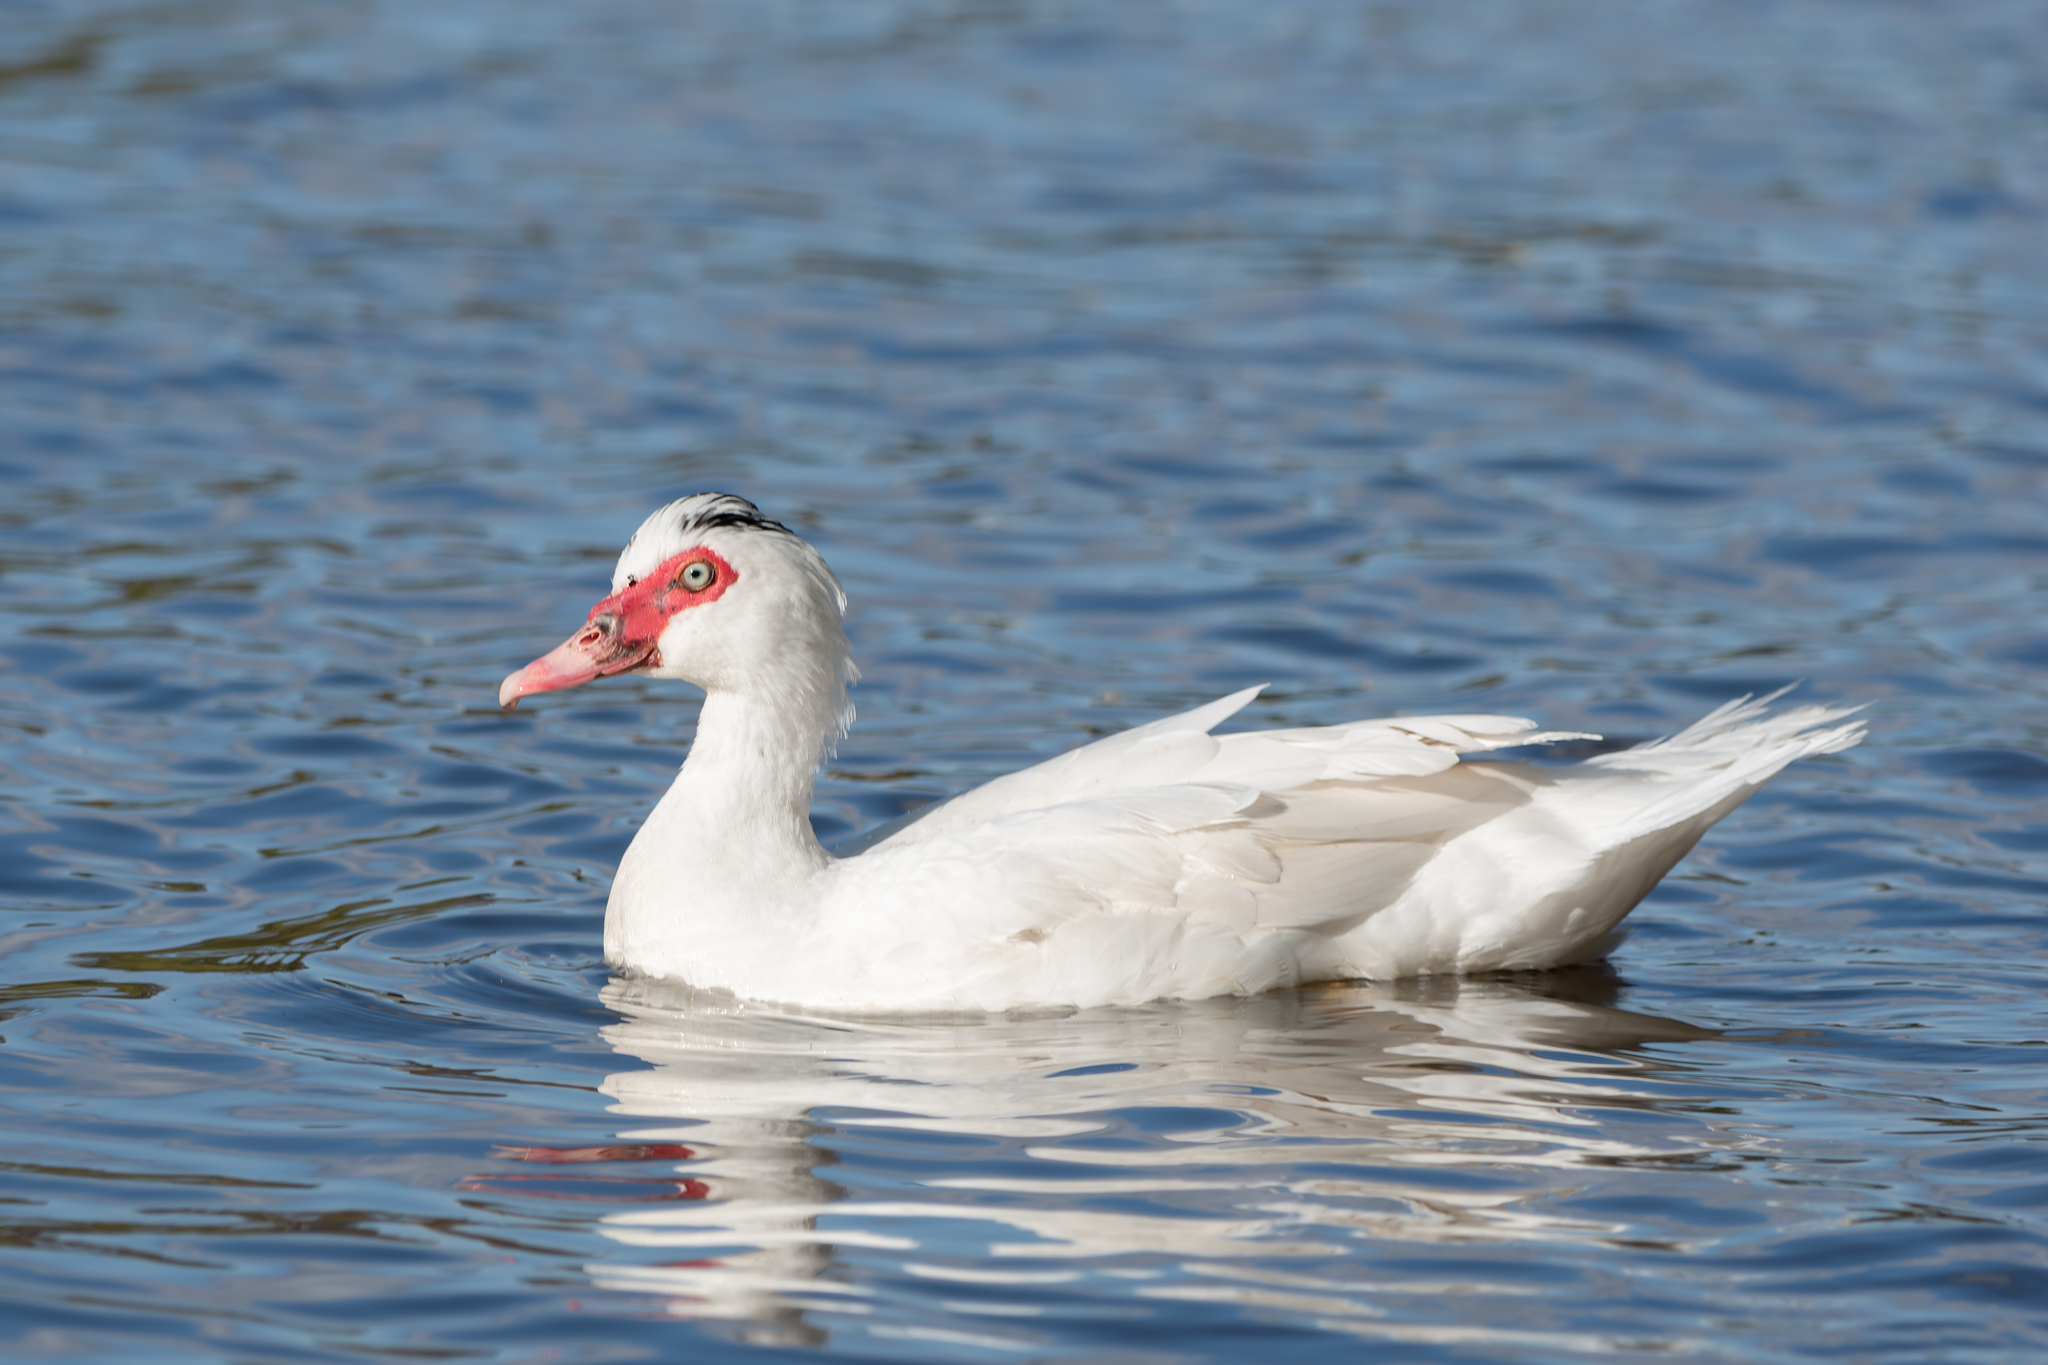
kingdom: Animalia
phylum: Chordata
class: Aves
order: Anseriformes
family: Anatidae
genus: Cairina
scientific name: Cairina moschata
